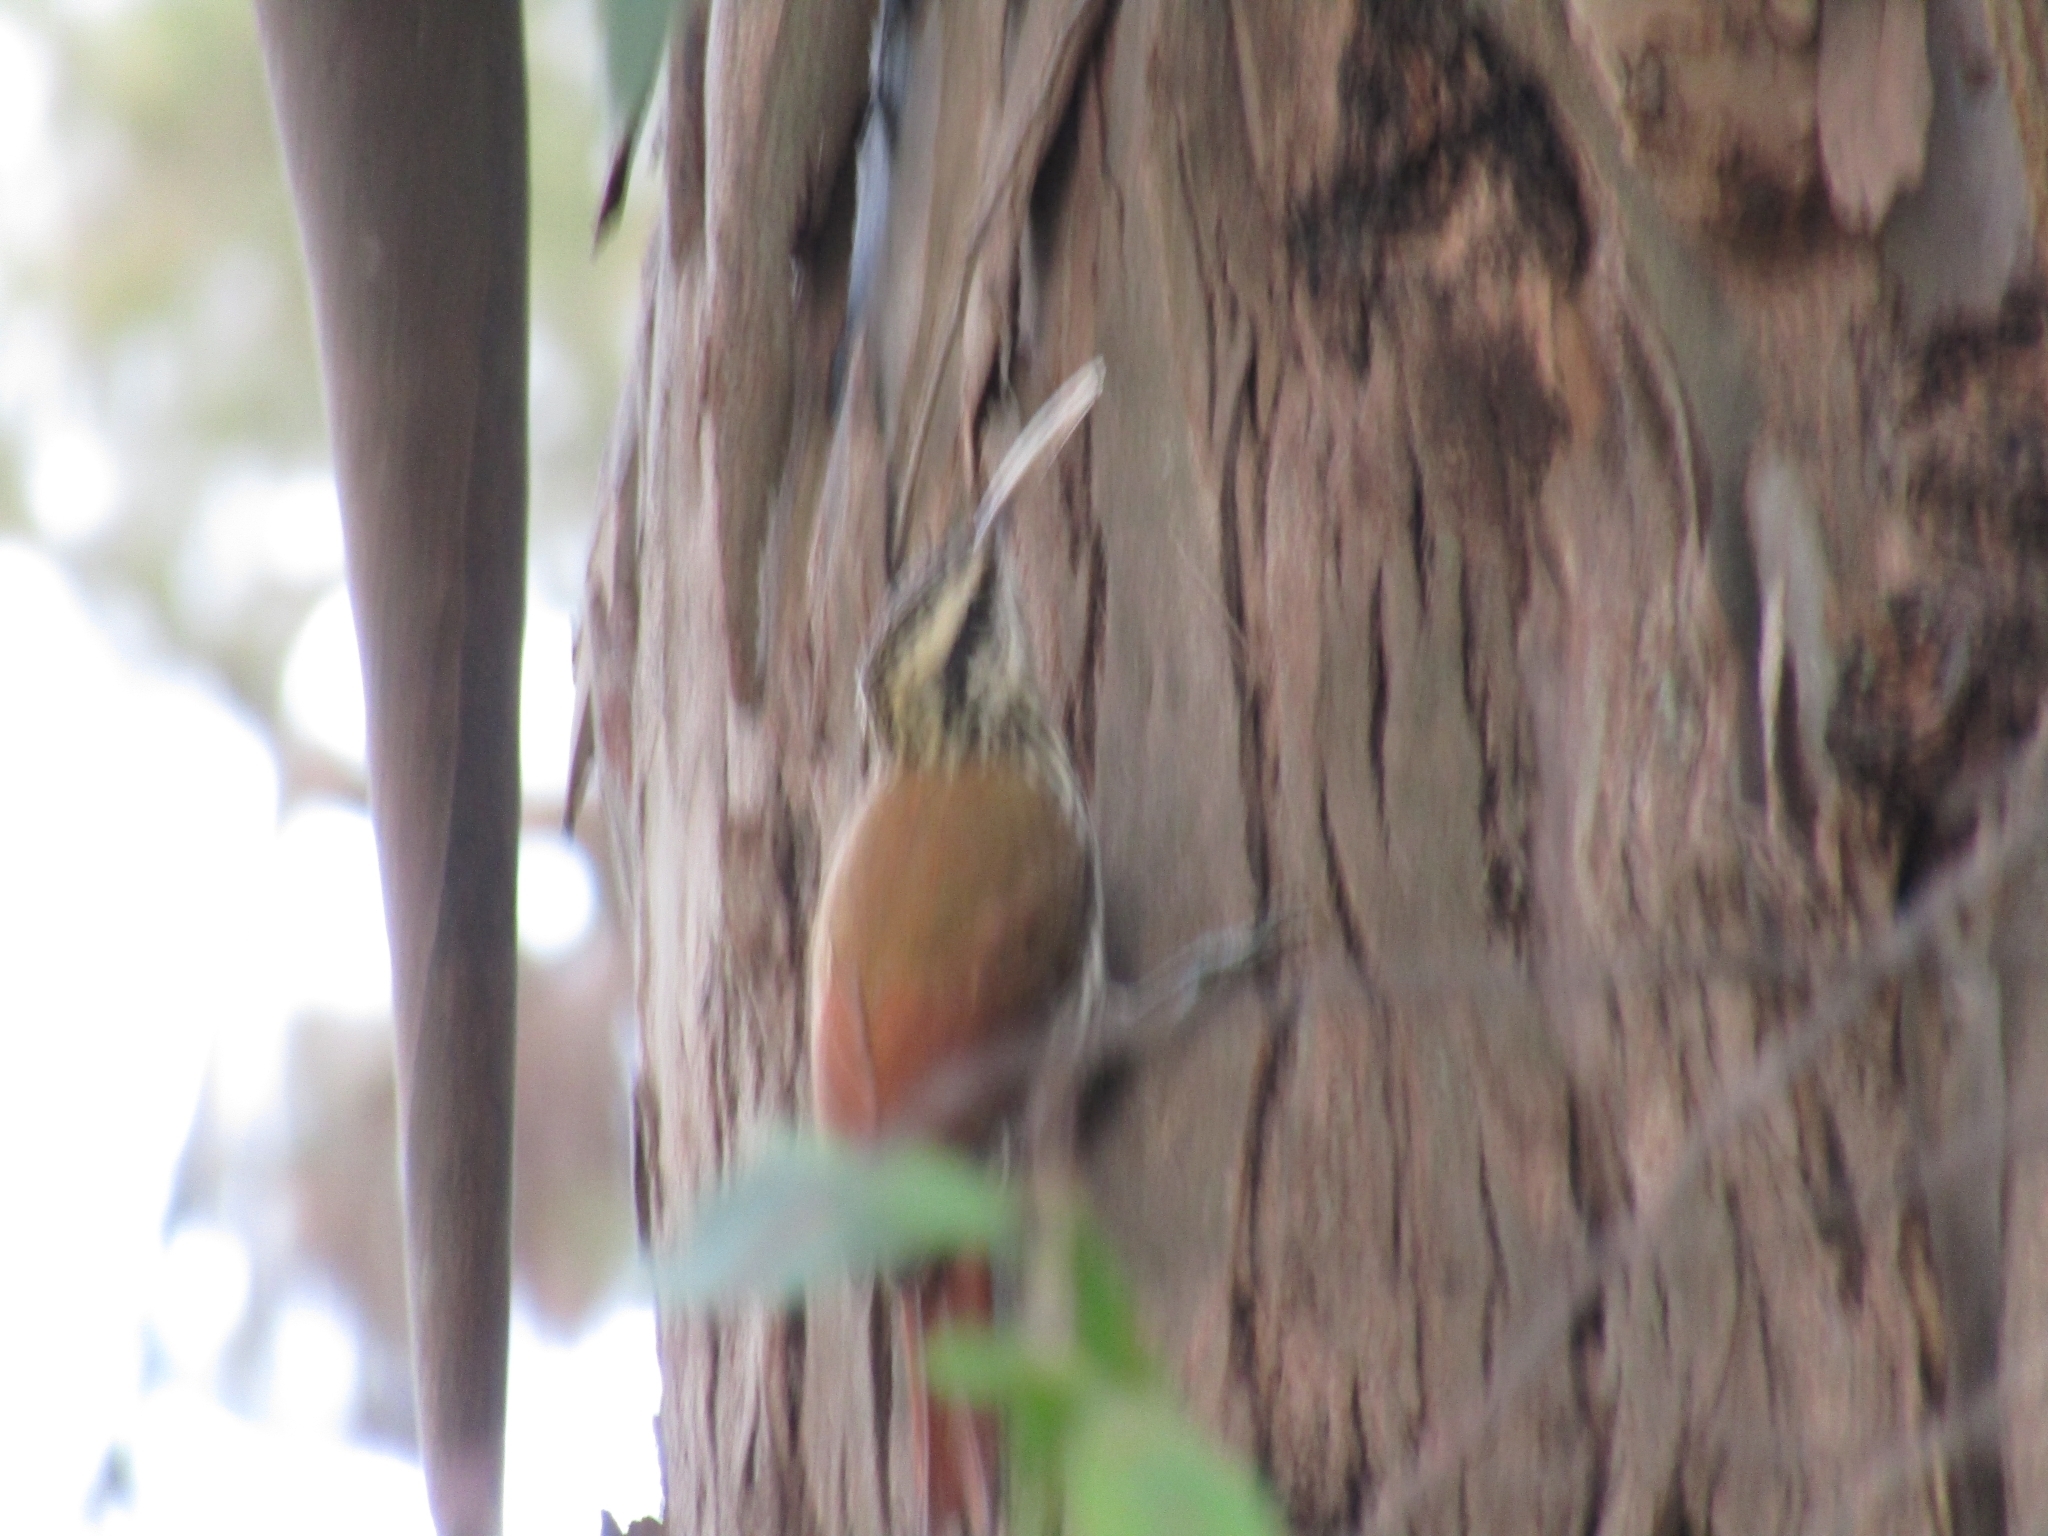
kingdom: Animalia
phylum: Chordata
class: Aves
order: Passeriformes
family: Furnariidae
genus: Lepidocolaptes
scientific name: Lepidocolaptes angustirostris
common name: Narrow-billed woodcreeper
